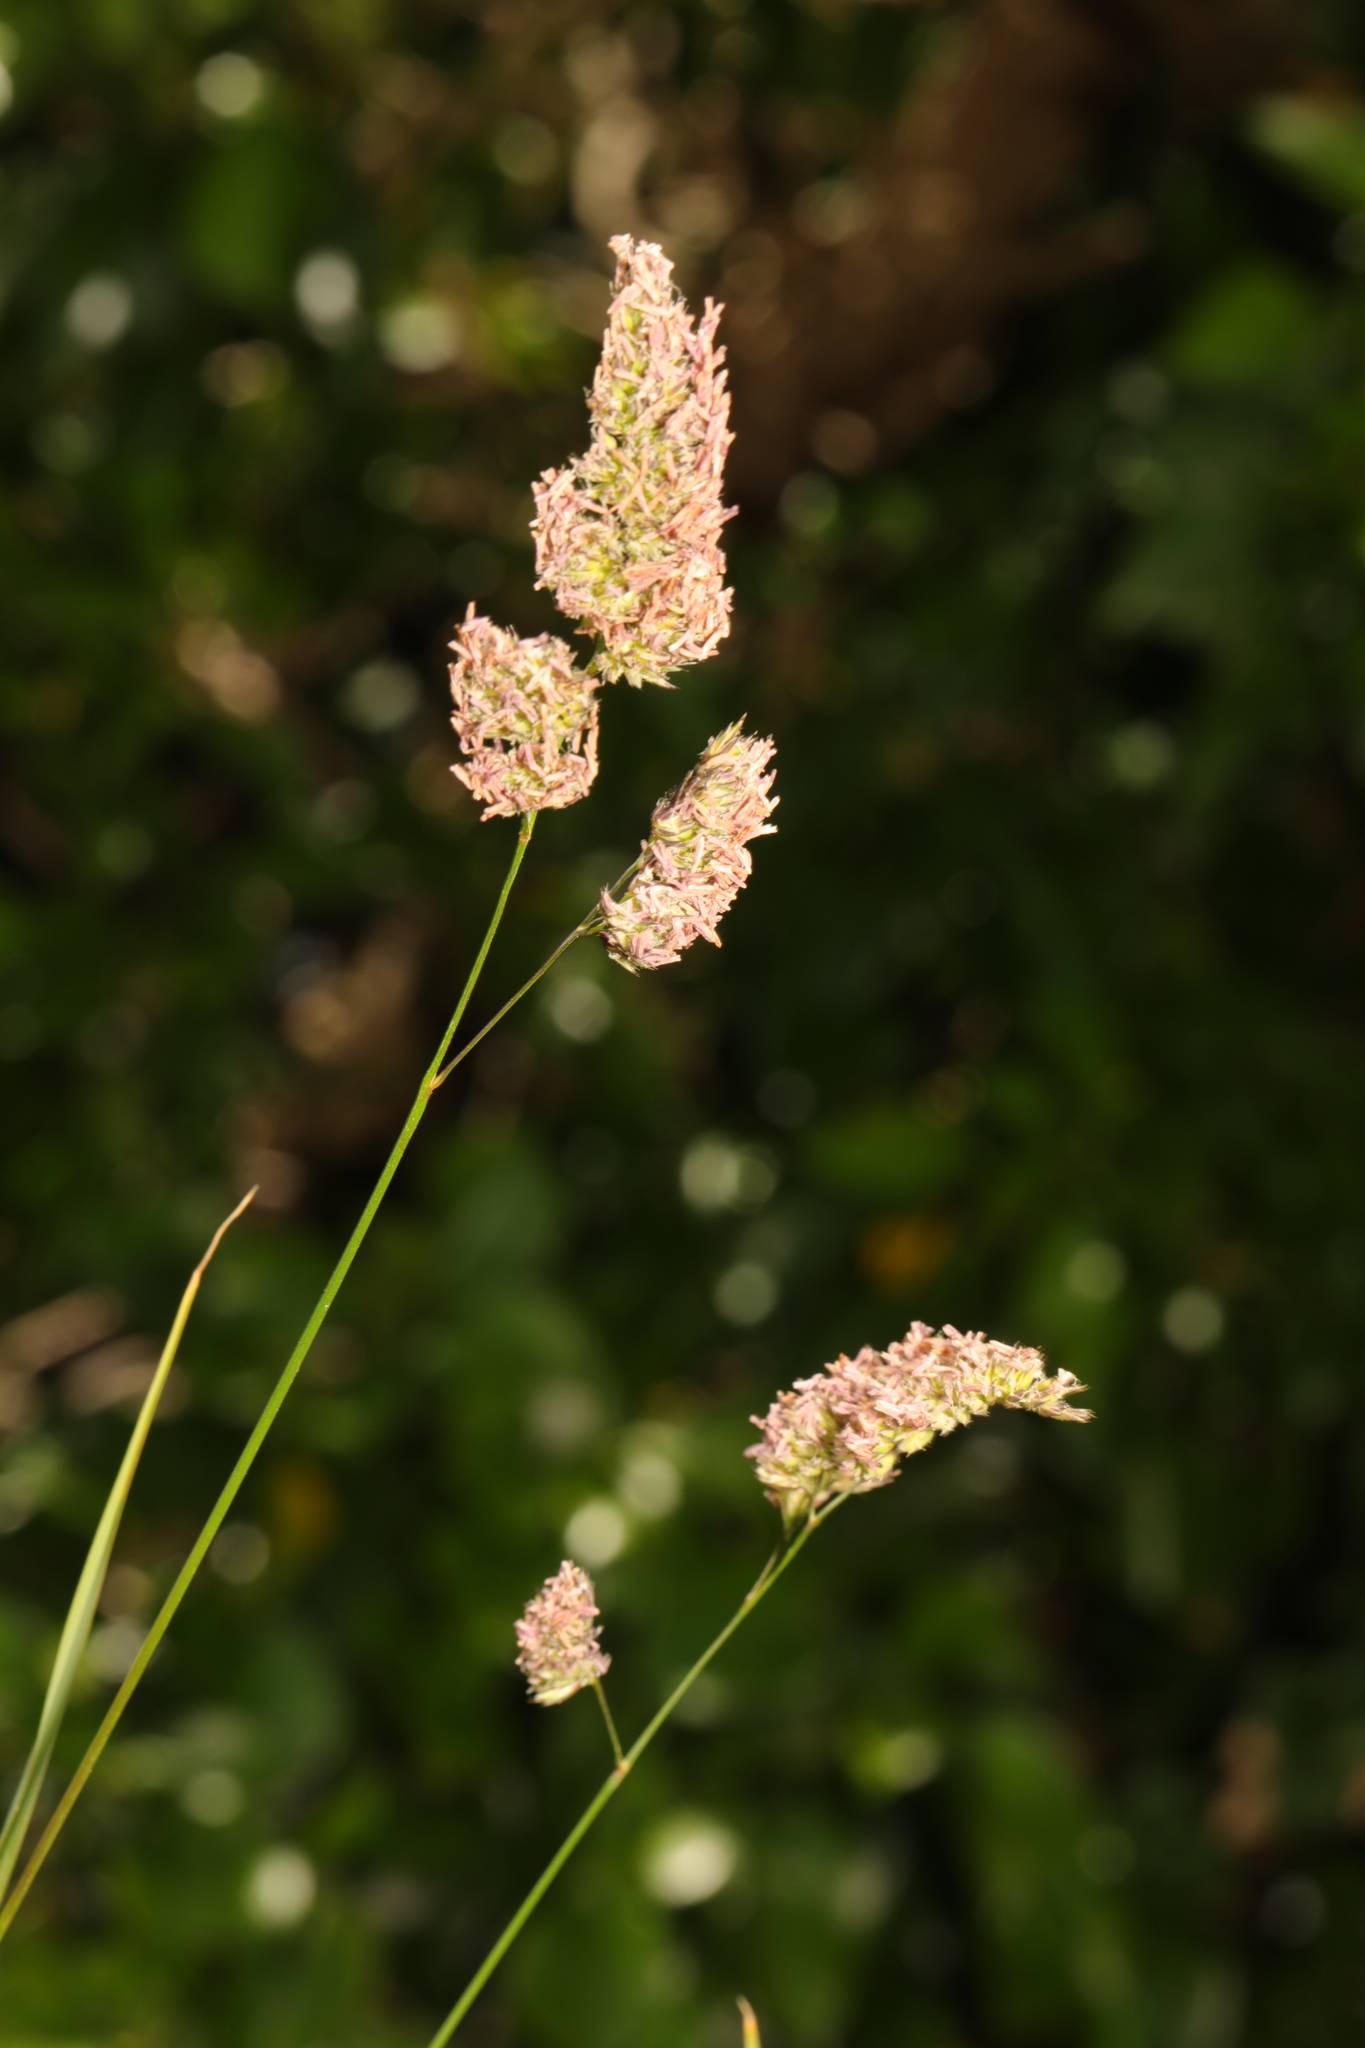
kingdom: Plantae
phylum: Tracheophyta
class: Liliopsida
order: Poales
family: Poaceae
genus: Dactylis
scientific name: Dactylis glomerata
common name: Orchardgrass
